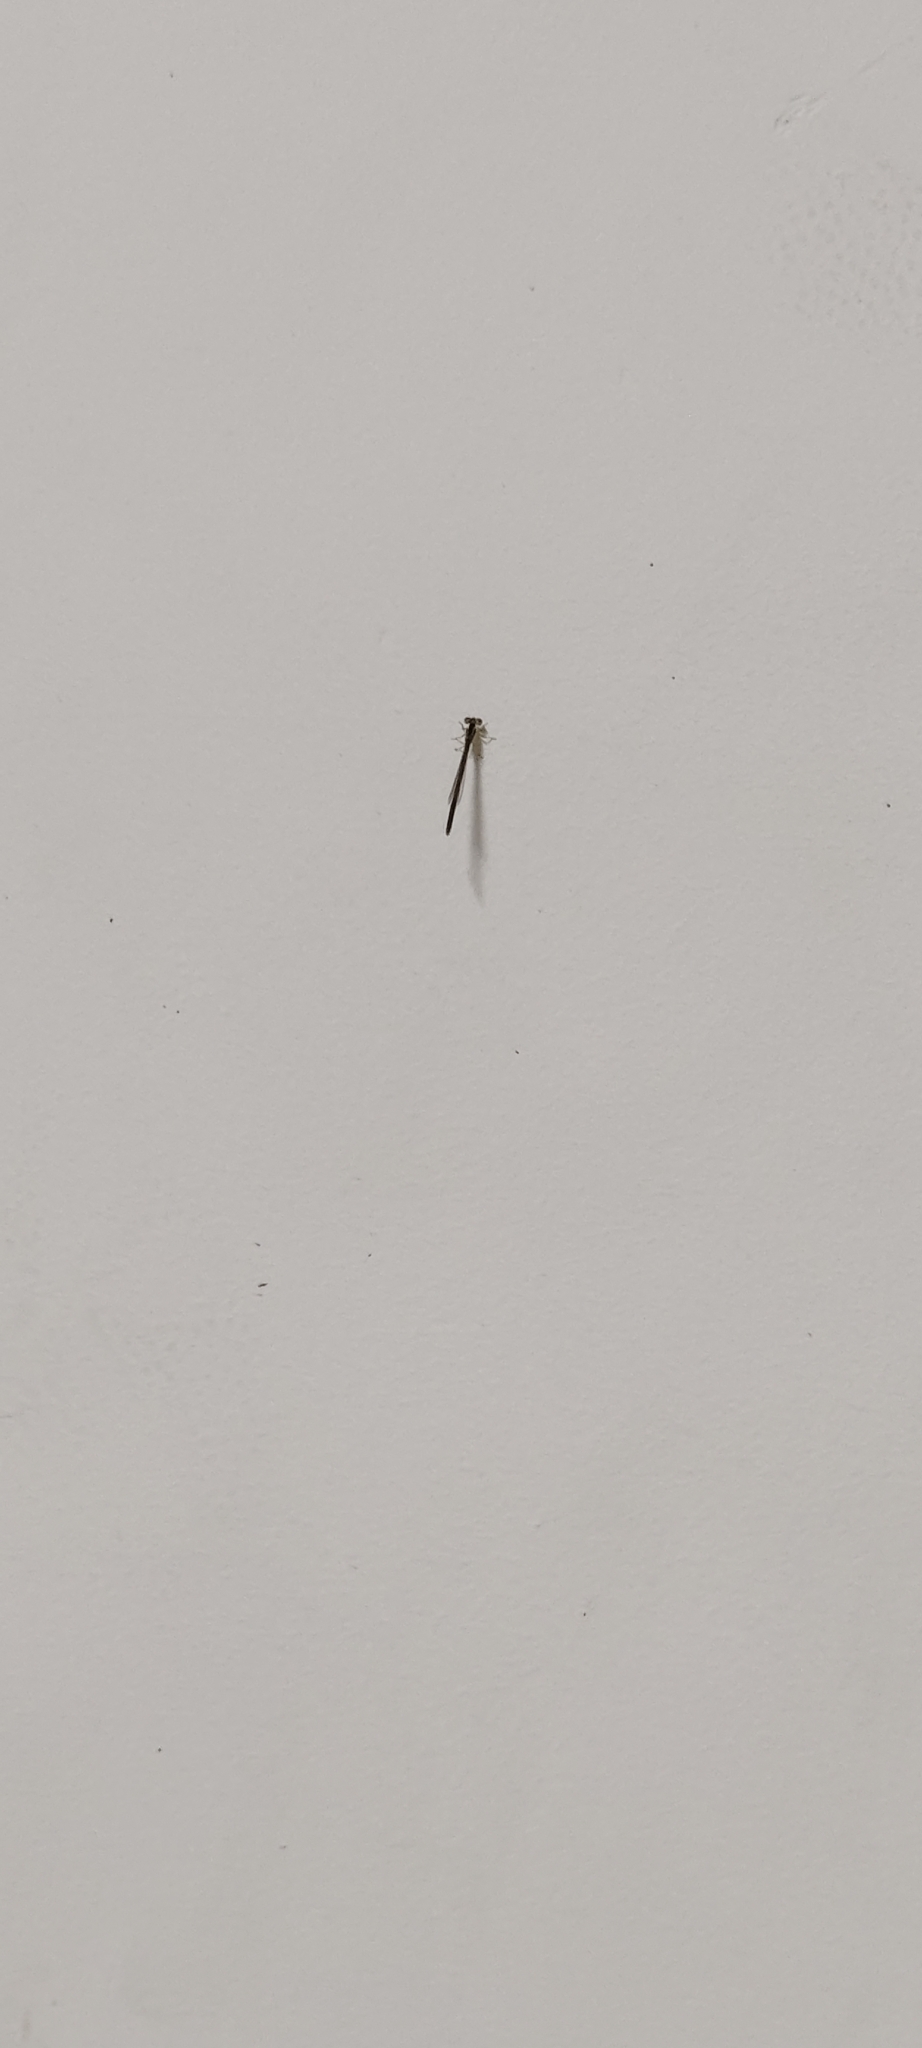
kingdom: Animalia
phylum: Arthropoda
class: Insecta
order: Odonata
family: Coenagrionidae
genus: Ischnura
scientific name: Ischnura rubilio
